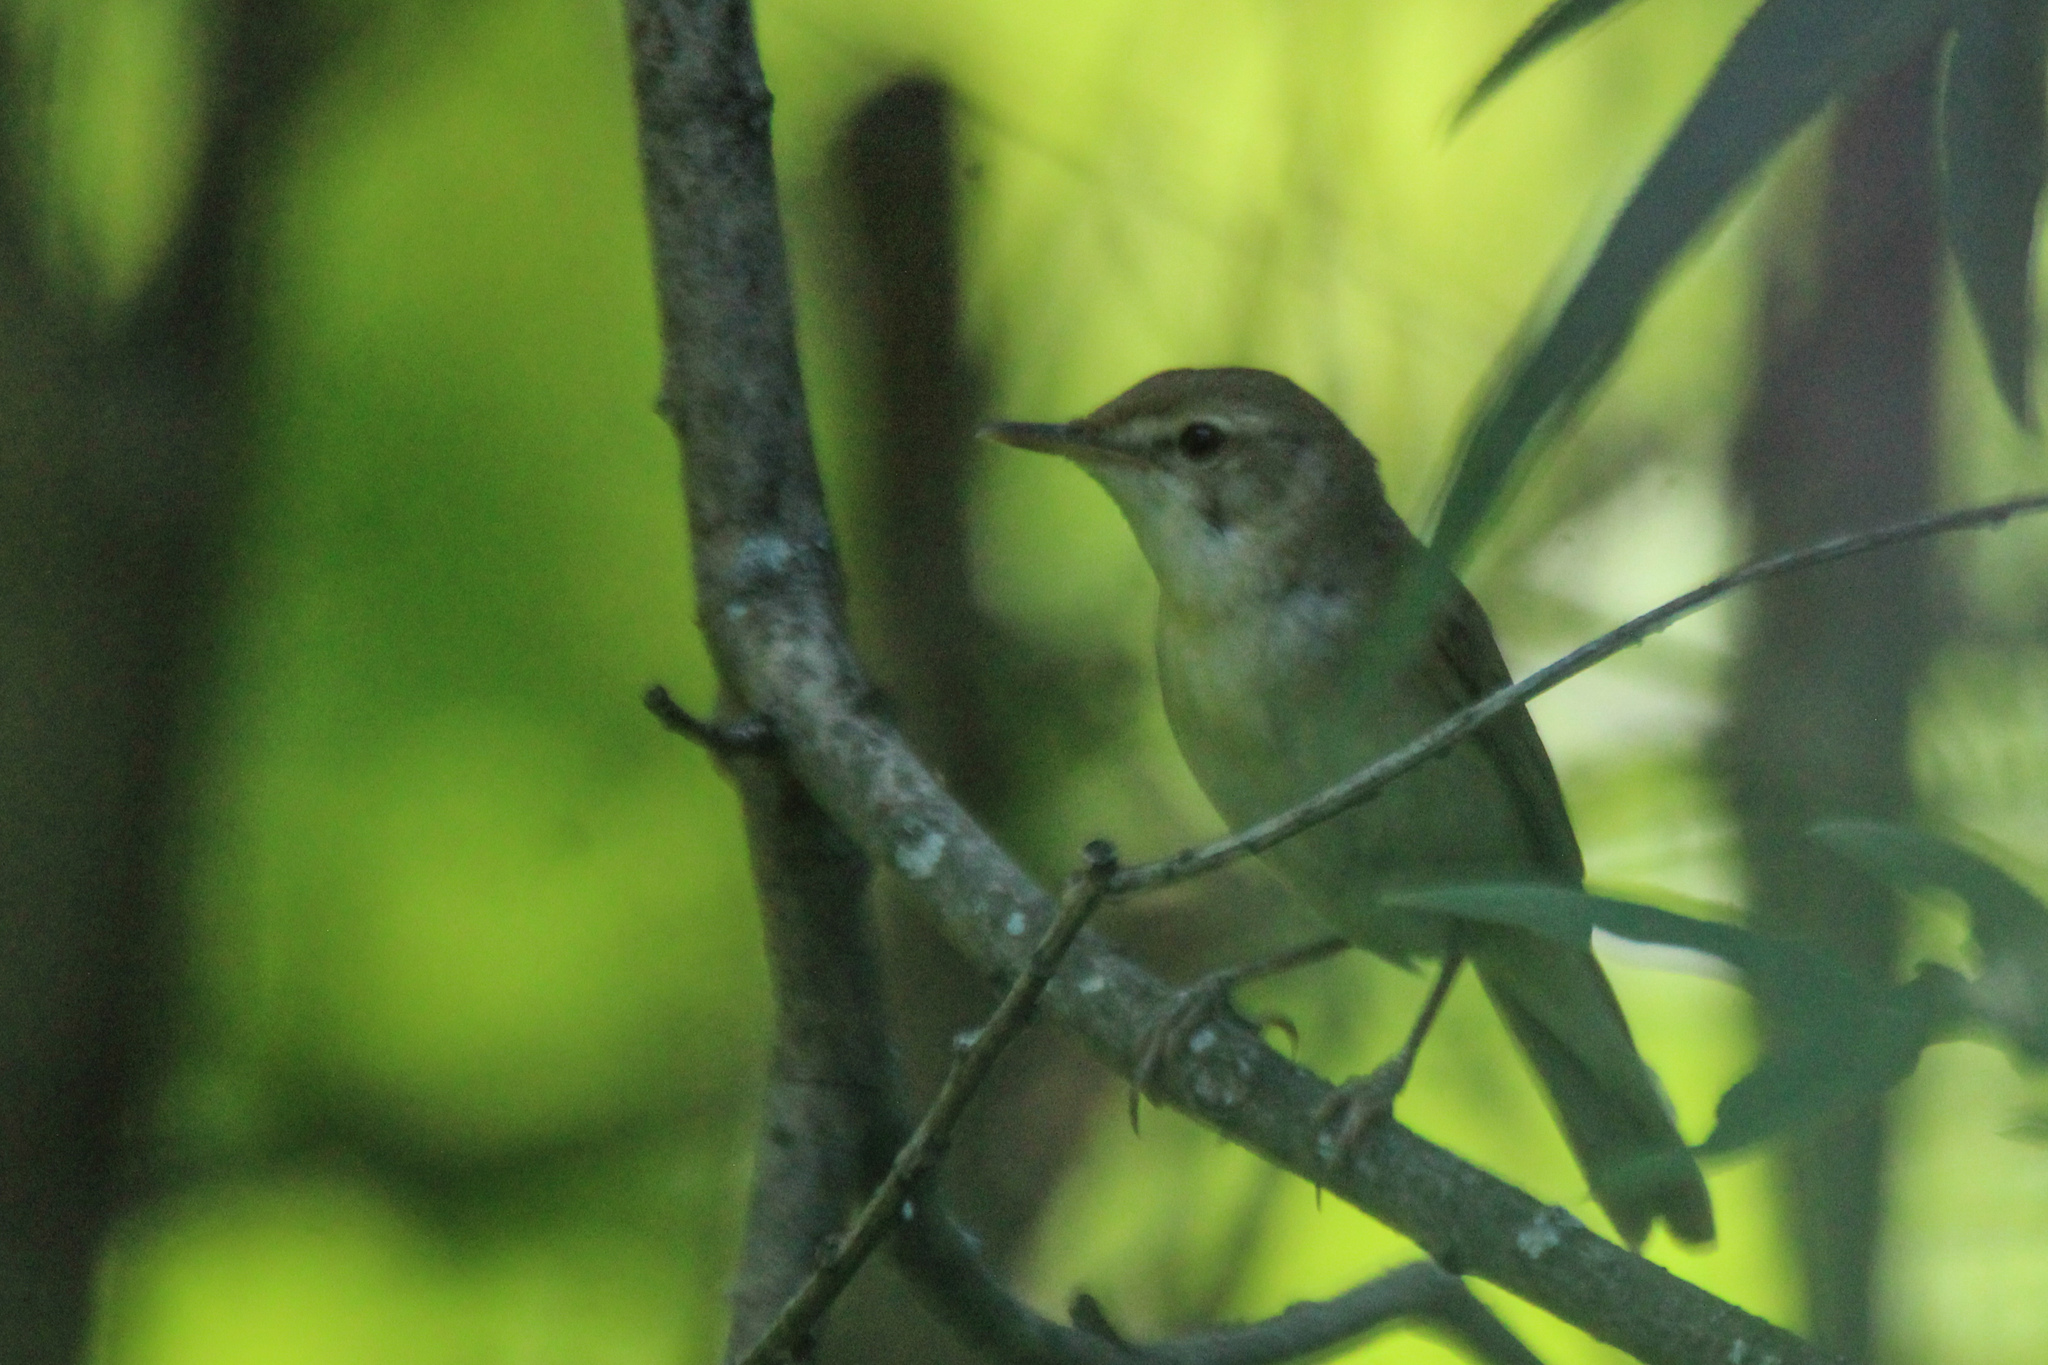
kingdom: Animalia
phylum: Chordata
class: Aves
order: Passeriformes
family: Acrocephalidae
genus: Acrocephalus
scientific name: Acrocephalus dumetorum
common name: Blyth's reed warbler
